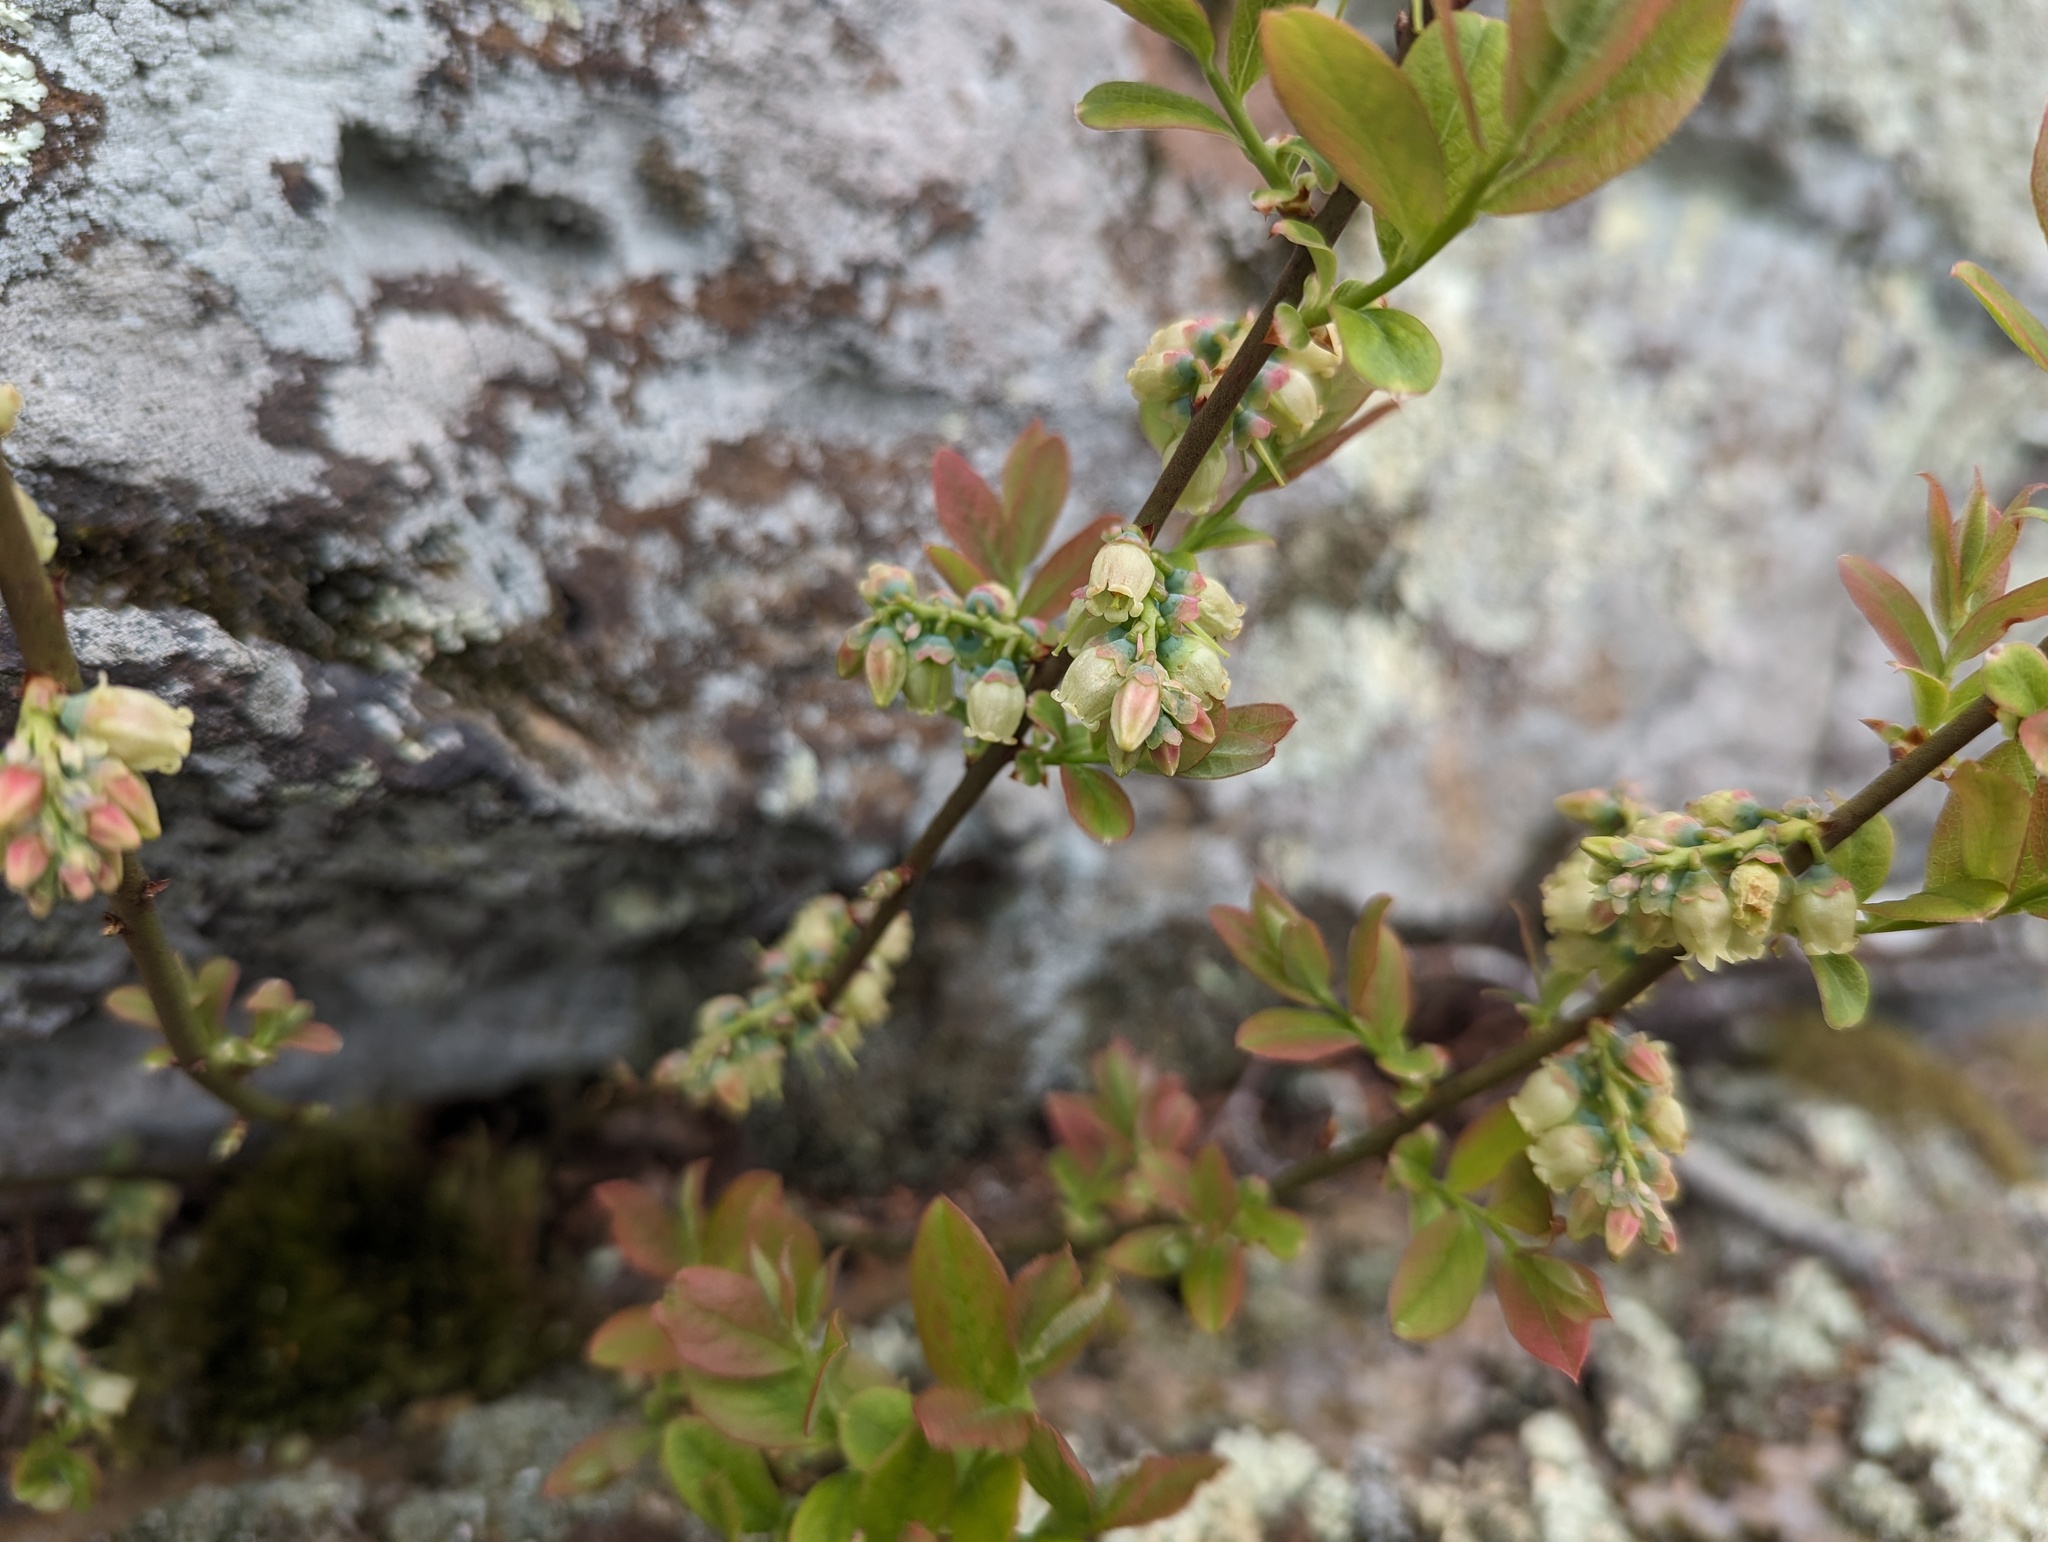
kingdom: Plantae
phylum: Tracheophyta
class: Magnoliopsida
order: Ericales
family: Ericaceae
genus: Vaccinium
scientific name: Vaccinium pallidum
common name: Blue ridge blueberry
